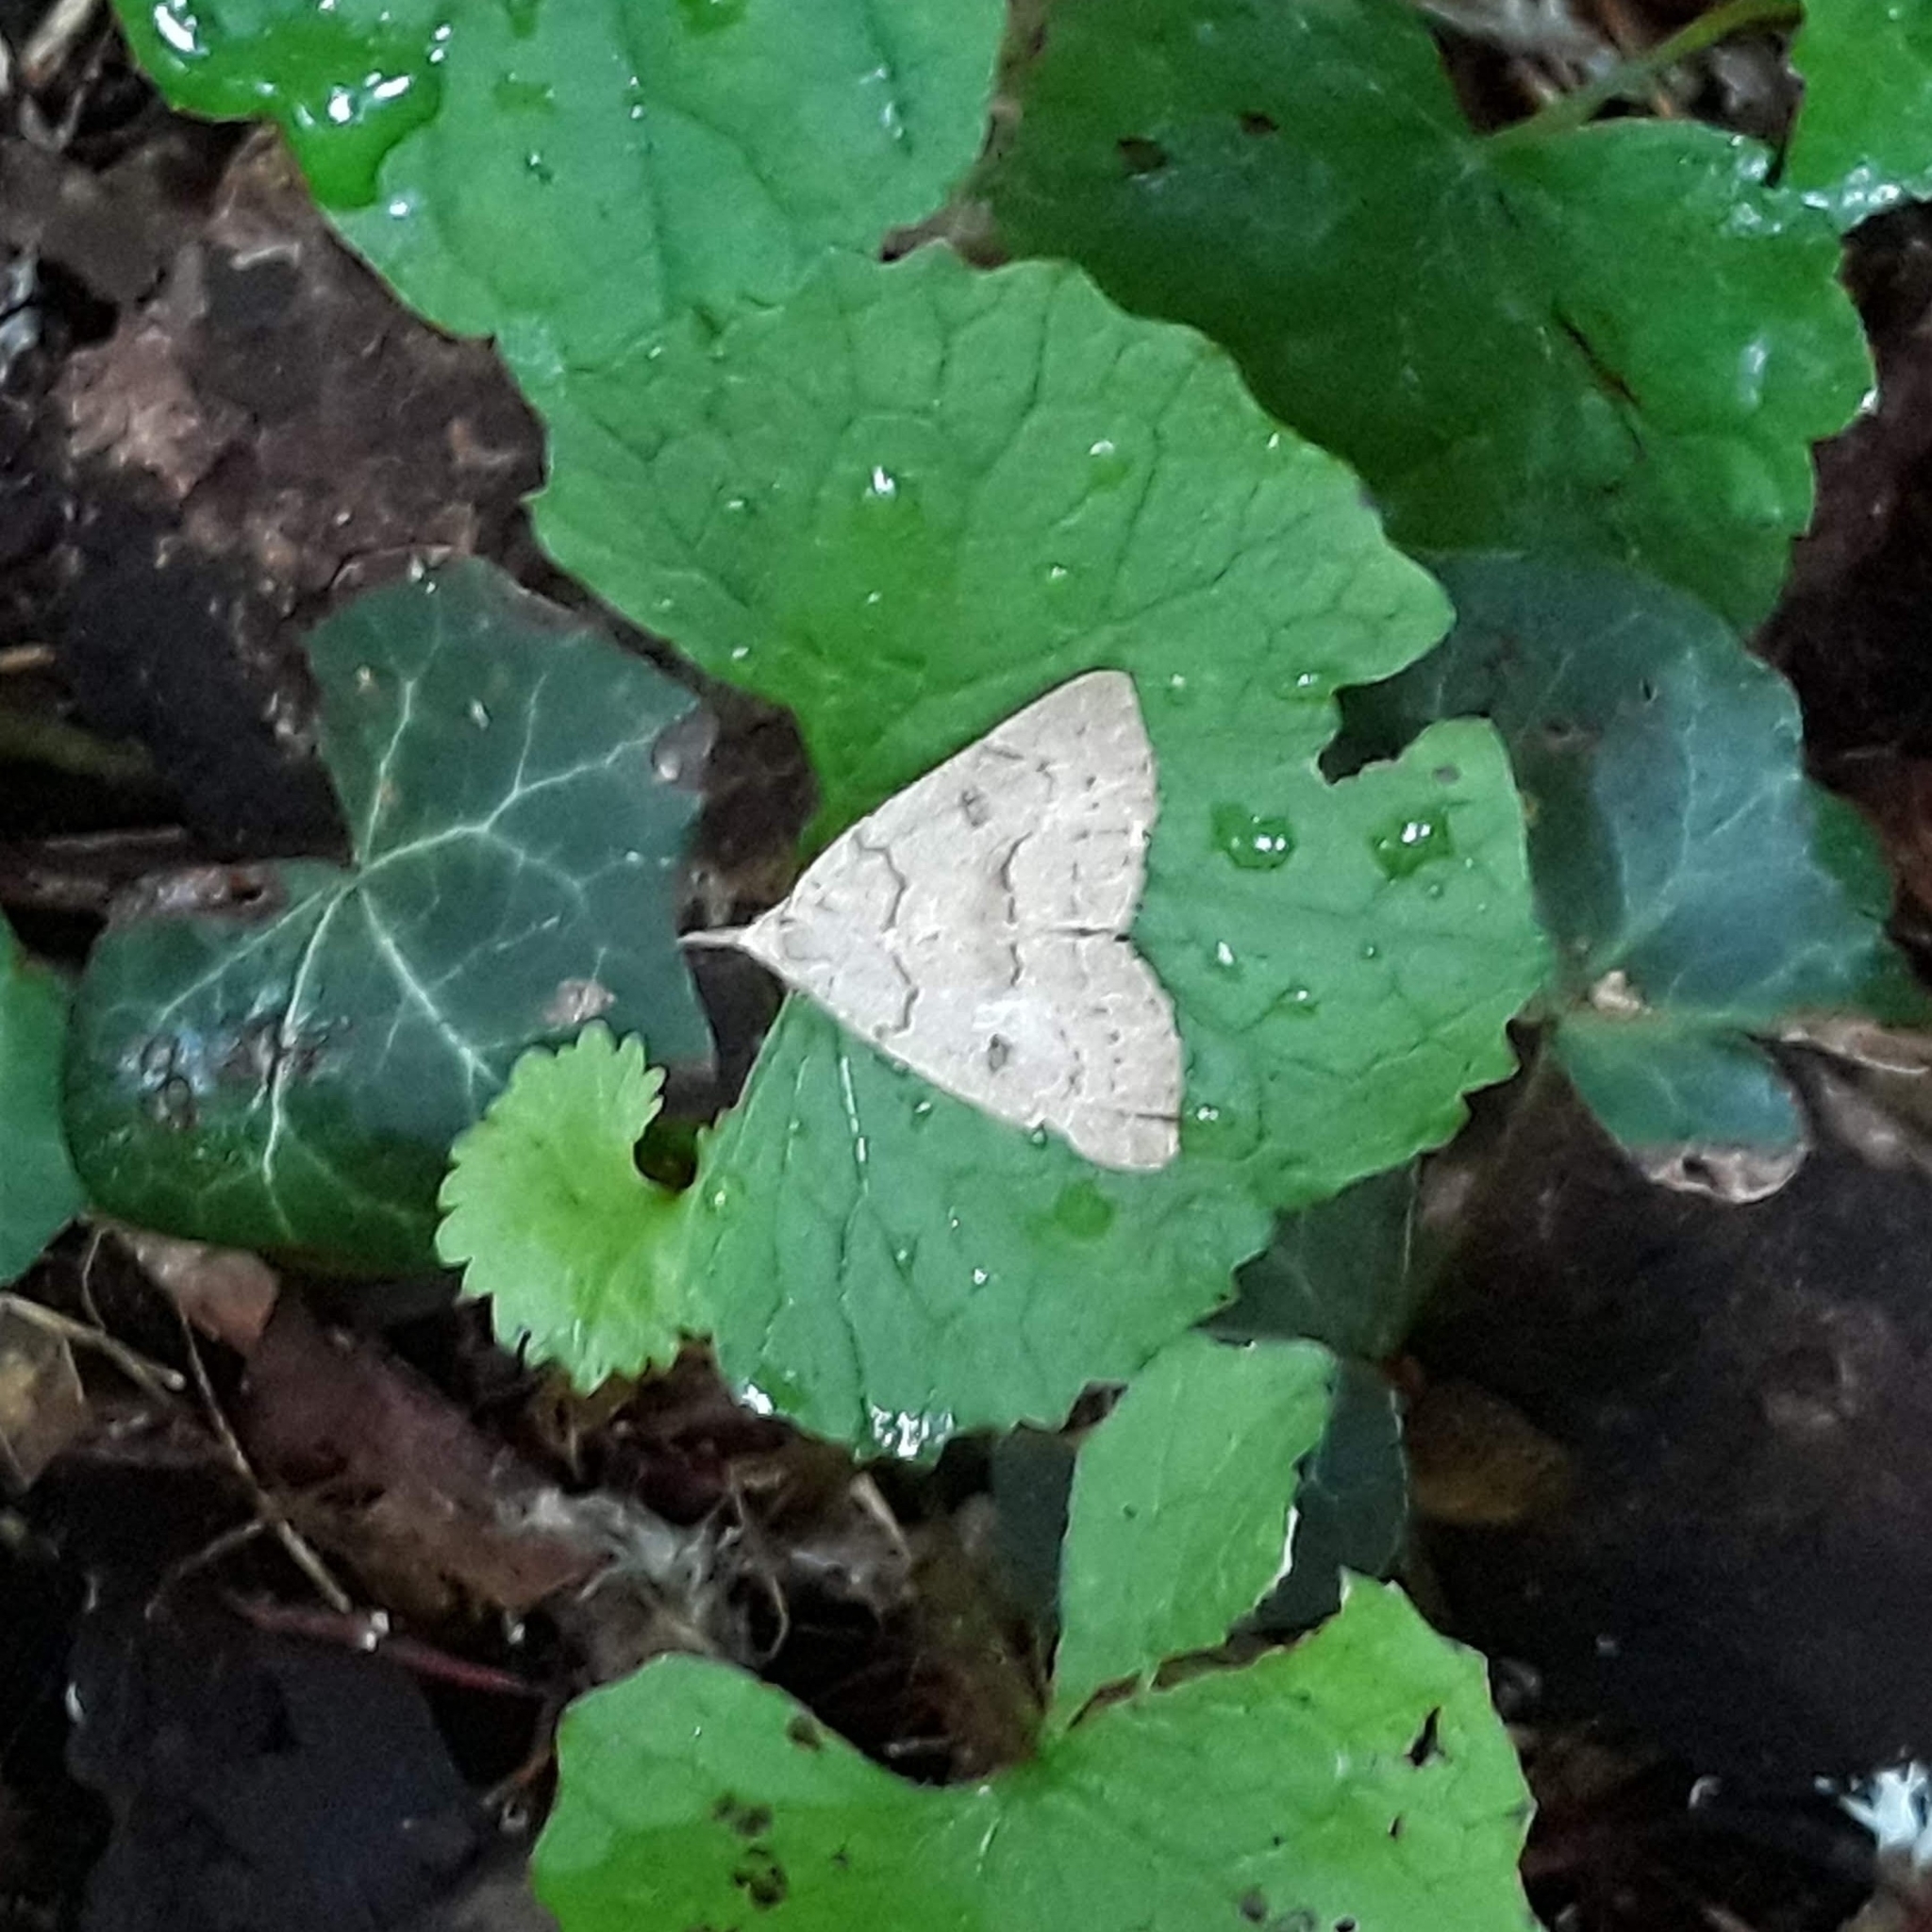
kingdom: Animalia
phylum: Arthropoda
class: Insecta
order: Lepidoptera
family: Erebidae
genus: Macrochilo
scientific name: Macrochilo morbidalis
